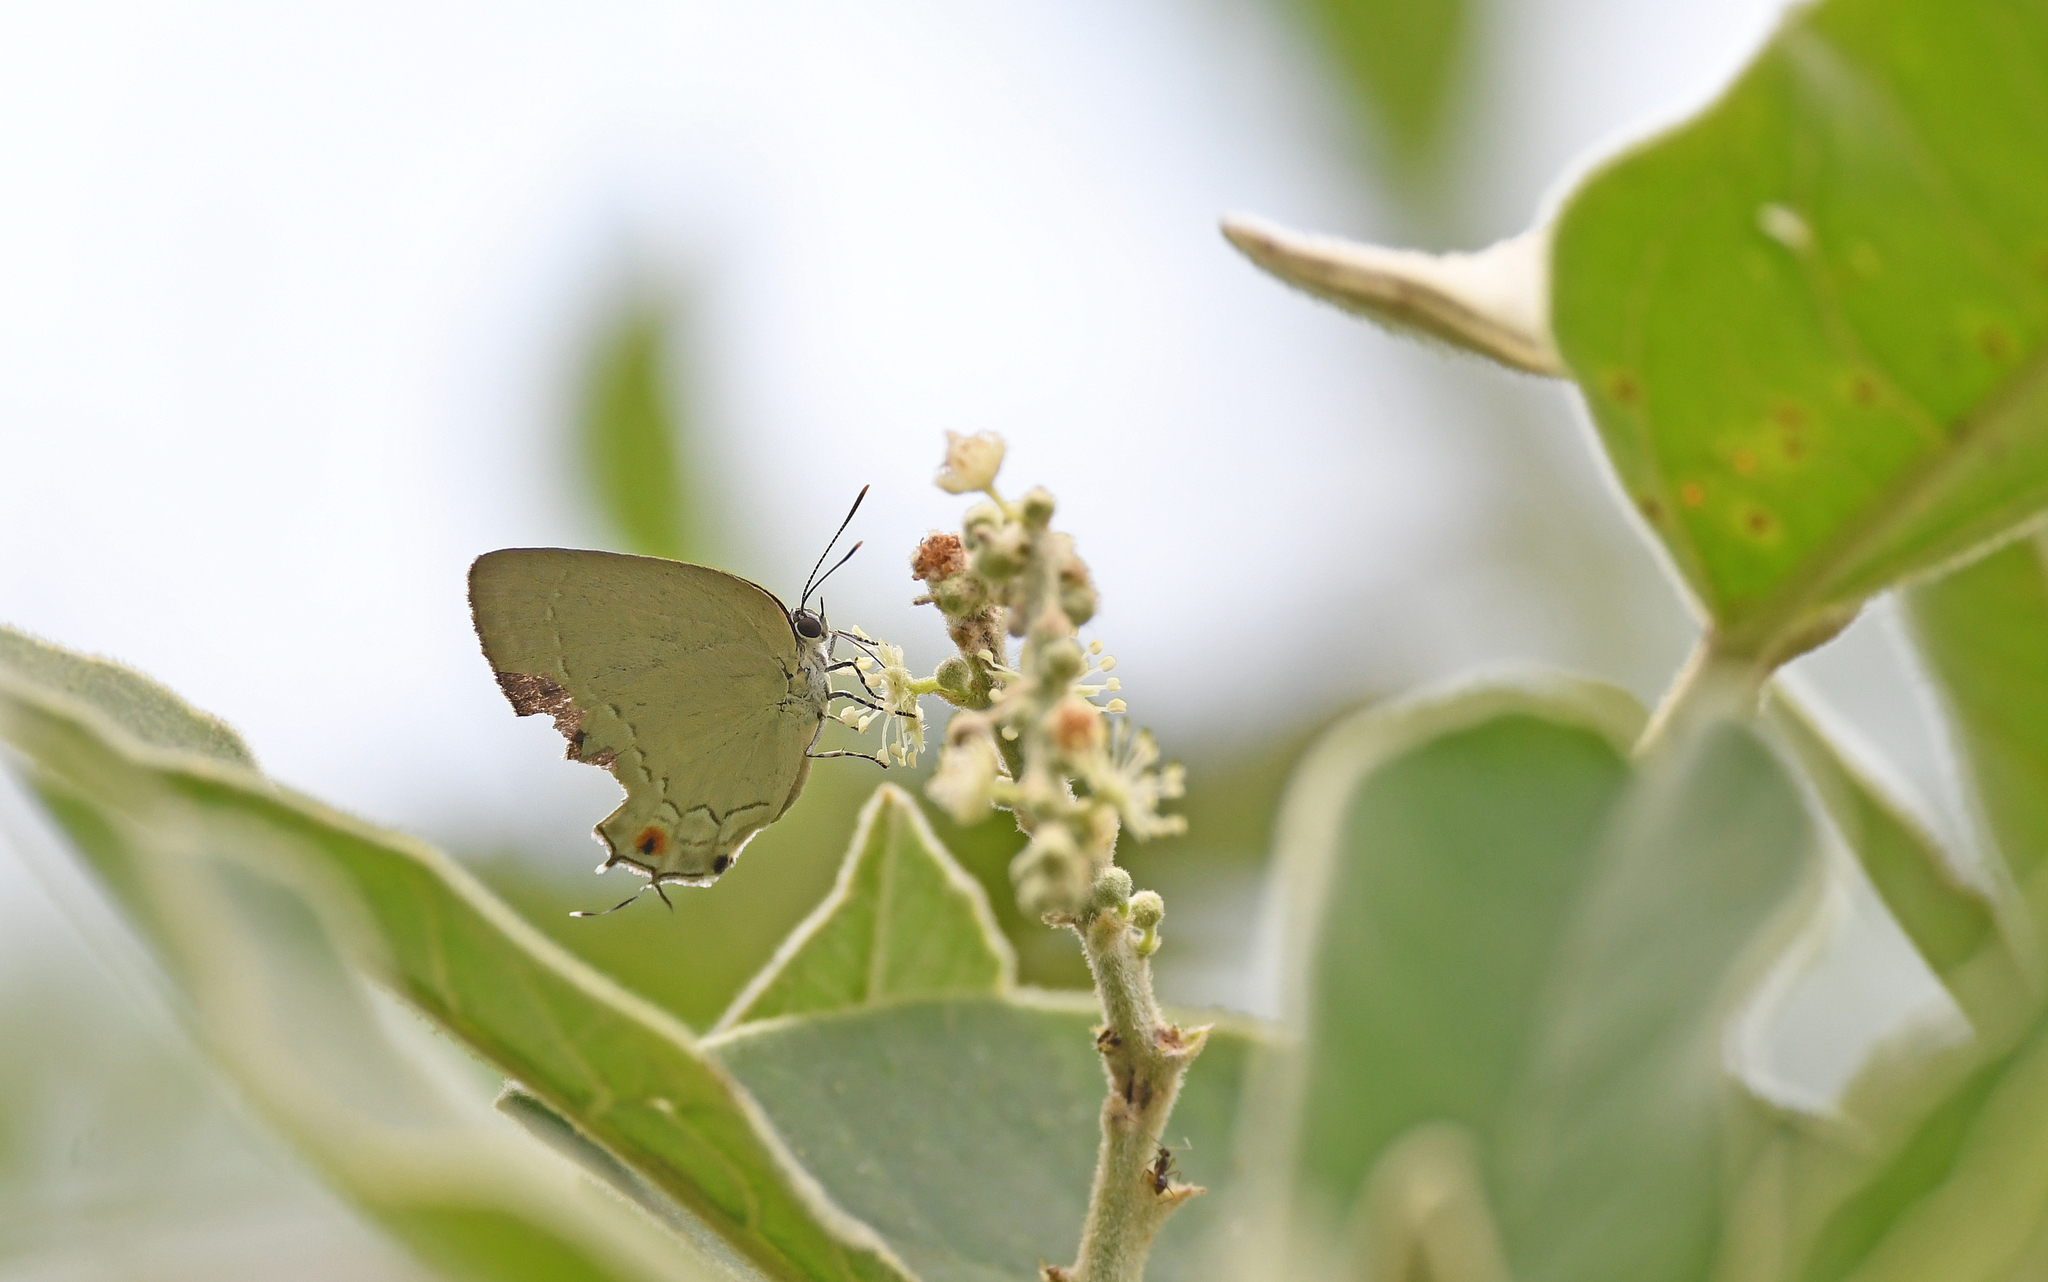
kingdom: Animalia
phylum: Arthropoda
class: Insecta
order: Lepidoptera
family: Lycaenidae
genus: Strephonota
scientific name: Strephonota tephraeus
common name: Pearly-gray hairstreak
